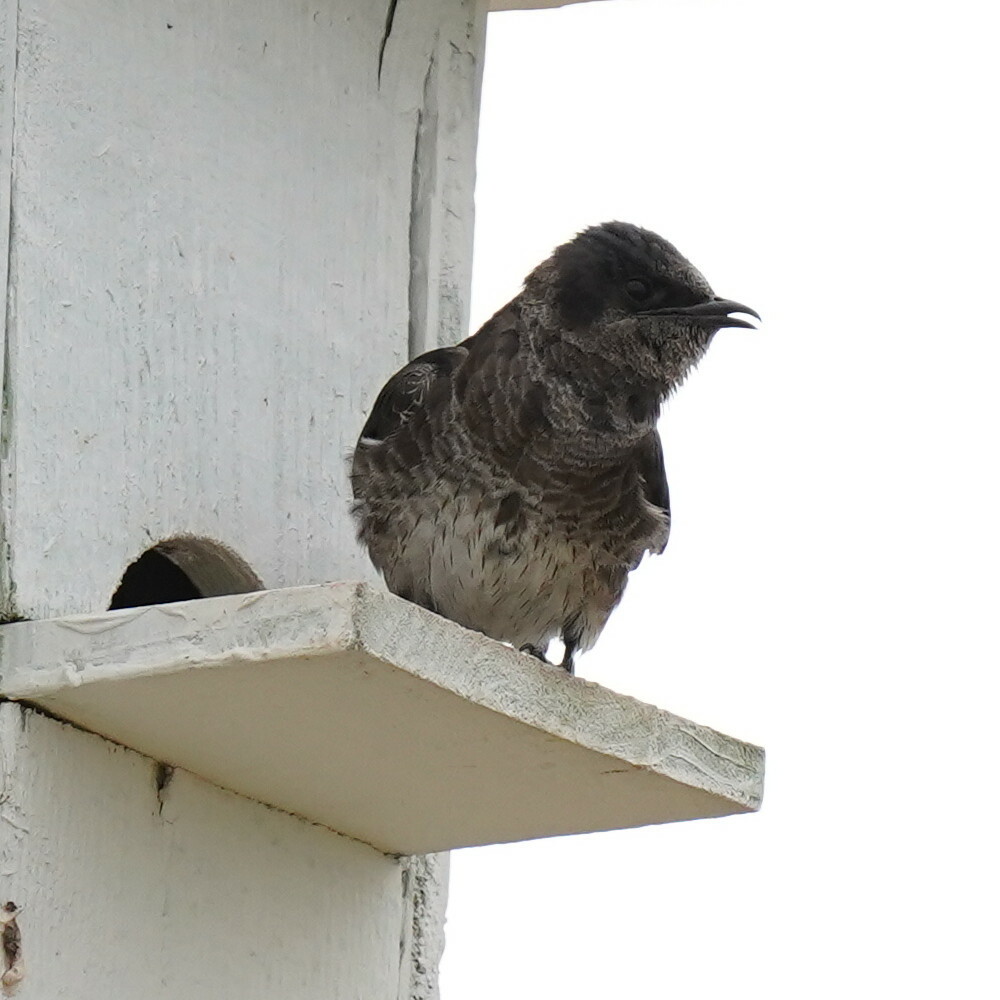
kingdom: Animalia
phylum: Chordata
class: Aves
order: Passeriformes
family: Hirundinidae
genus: Progne
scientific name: Progne subis
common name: Purple martin
